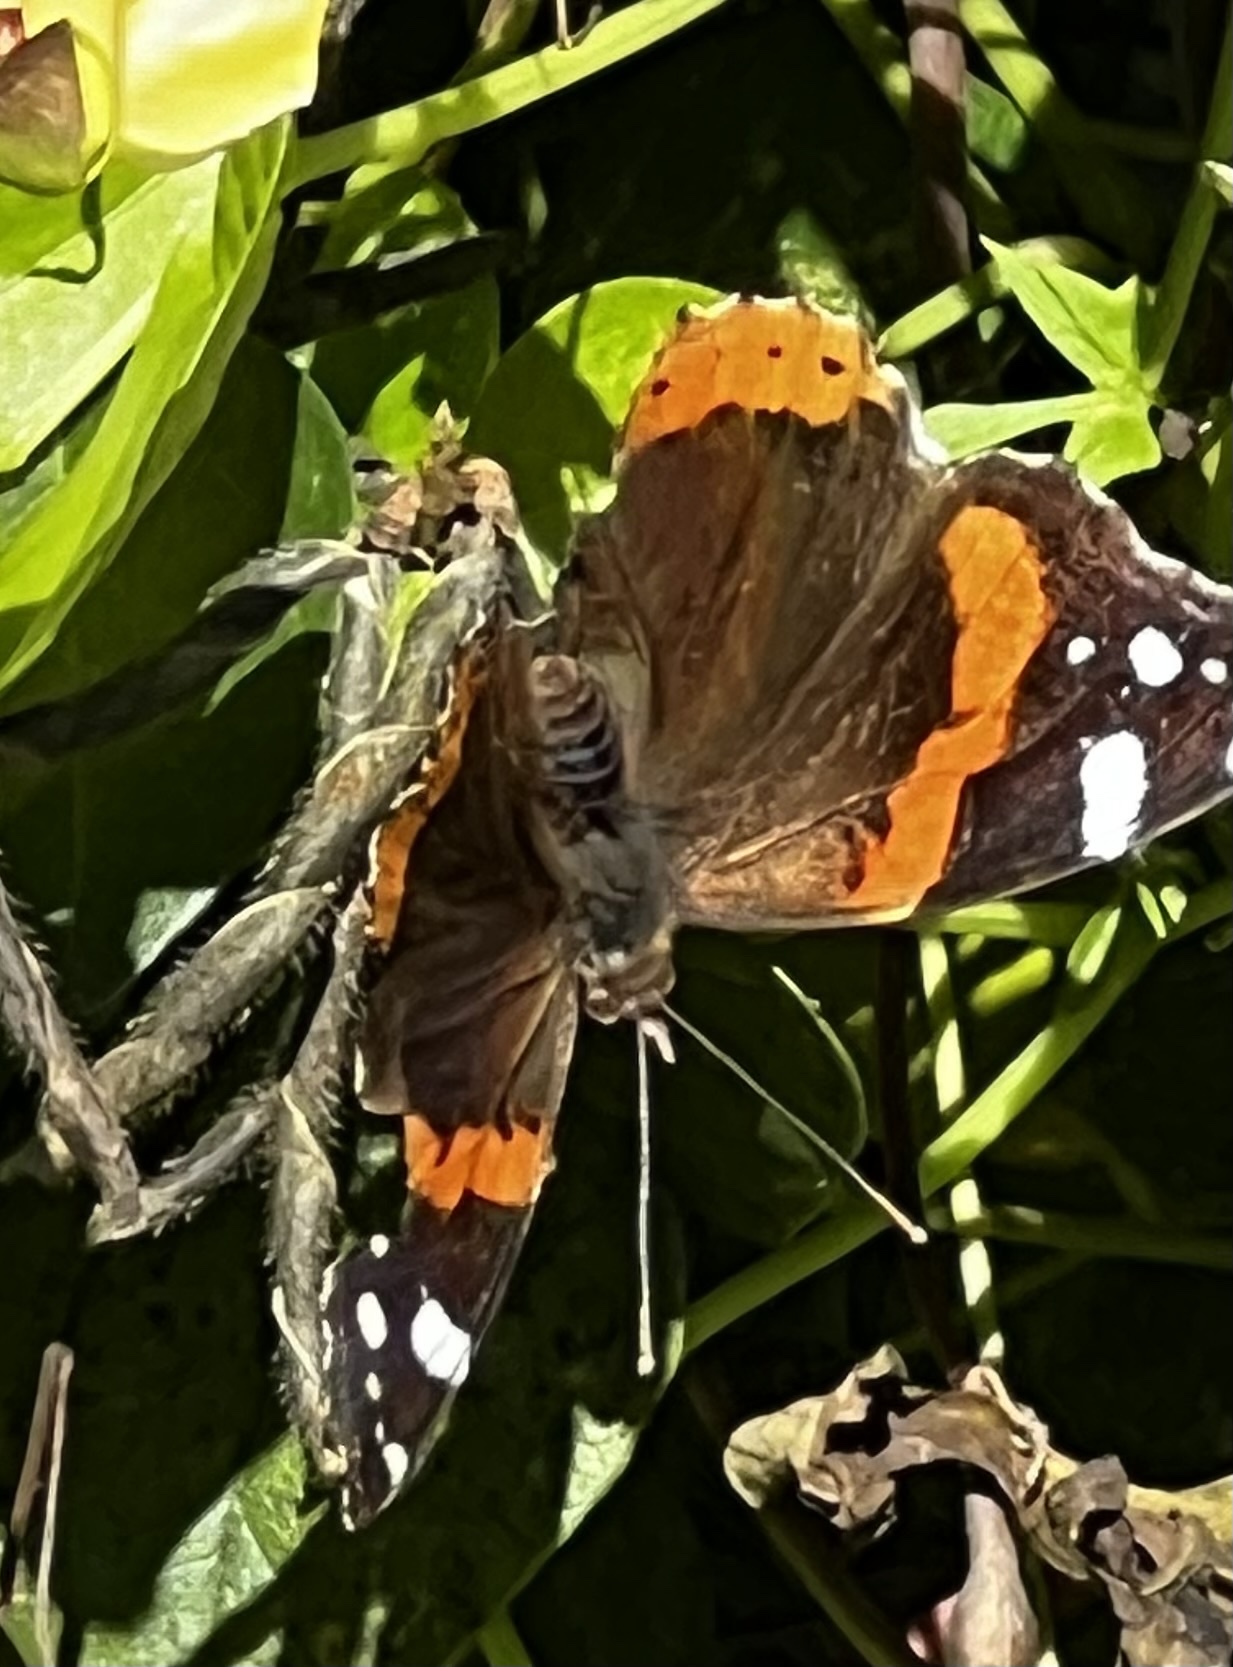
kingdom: Animalia
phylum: Arthropoda
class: Insecta
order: Lepidoptera
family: Nymphalidae
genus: Vanessa
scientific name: Vanessa atalanta
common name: Red admiral
